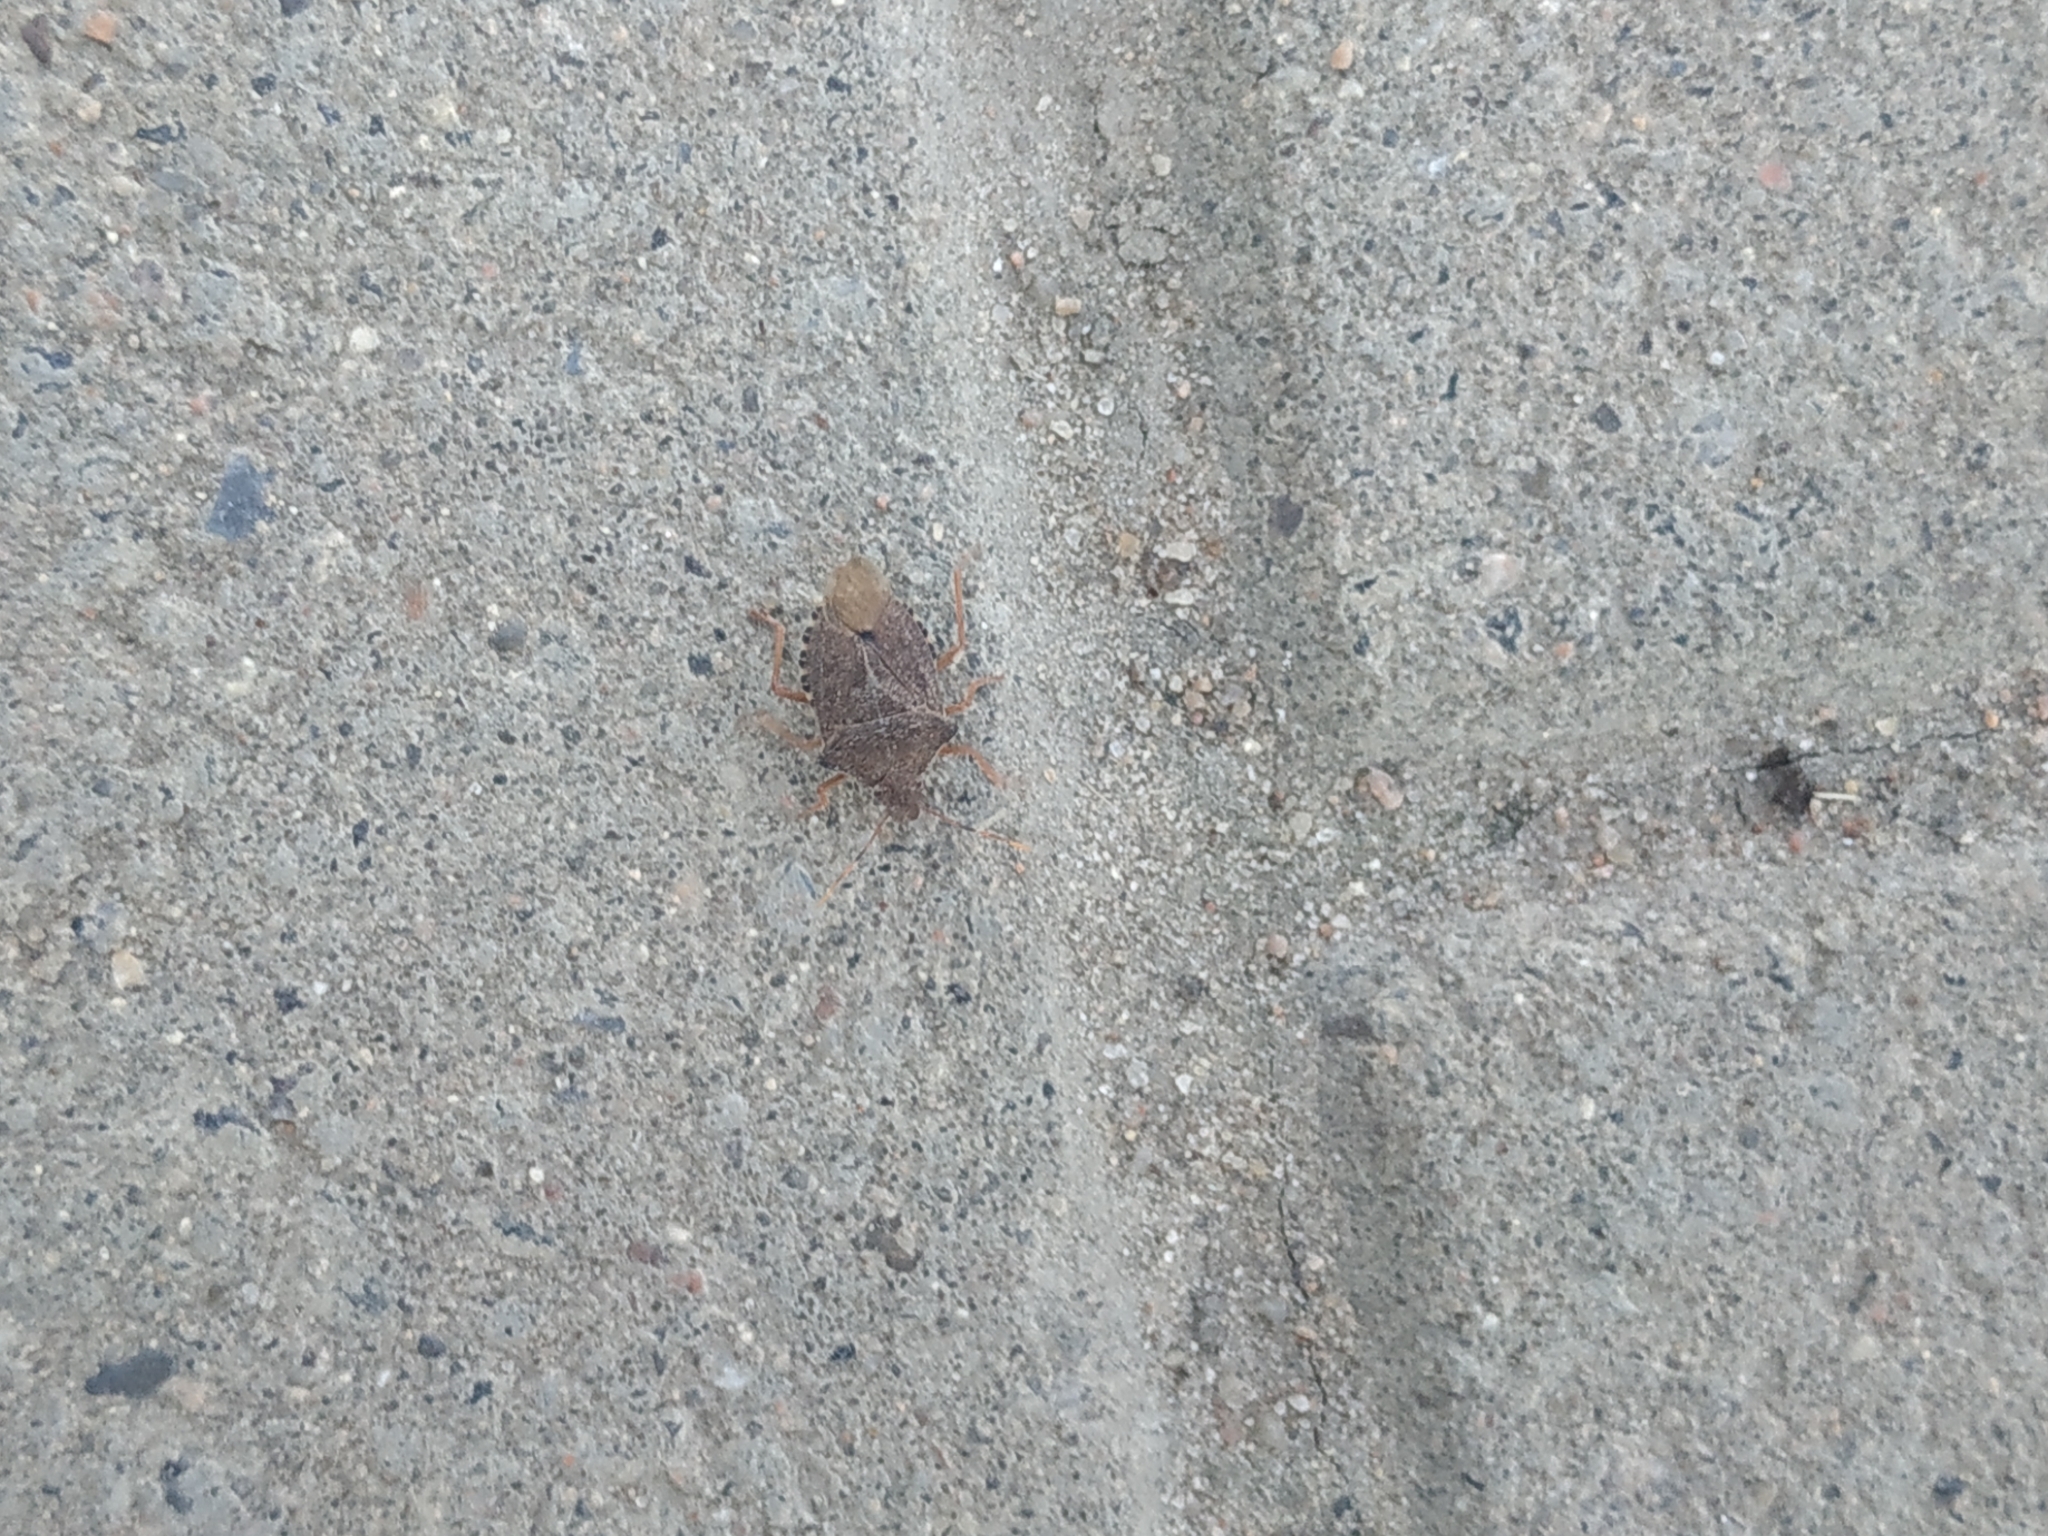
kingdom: Animalia
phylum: Arthropoda
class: Insecta
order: Hemiptera
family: Pentatomidae
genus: Arma
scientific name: Arma custos
